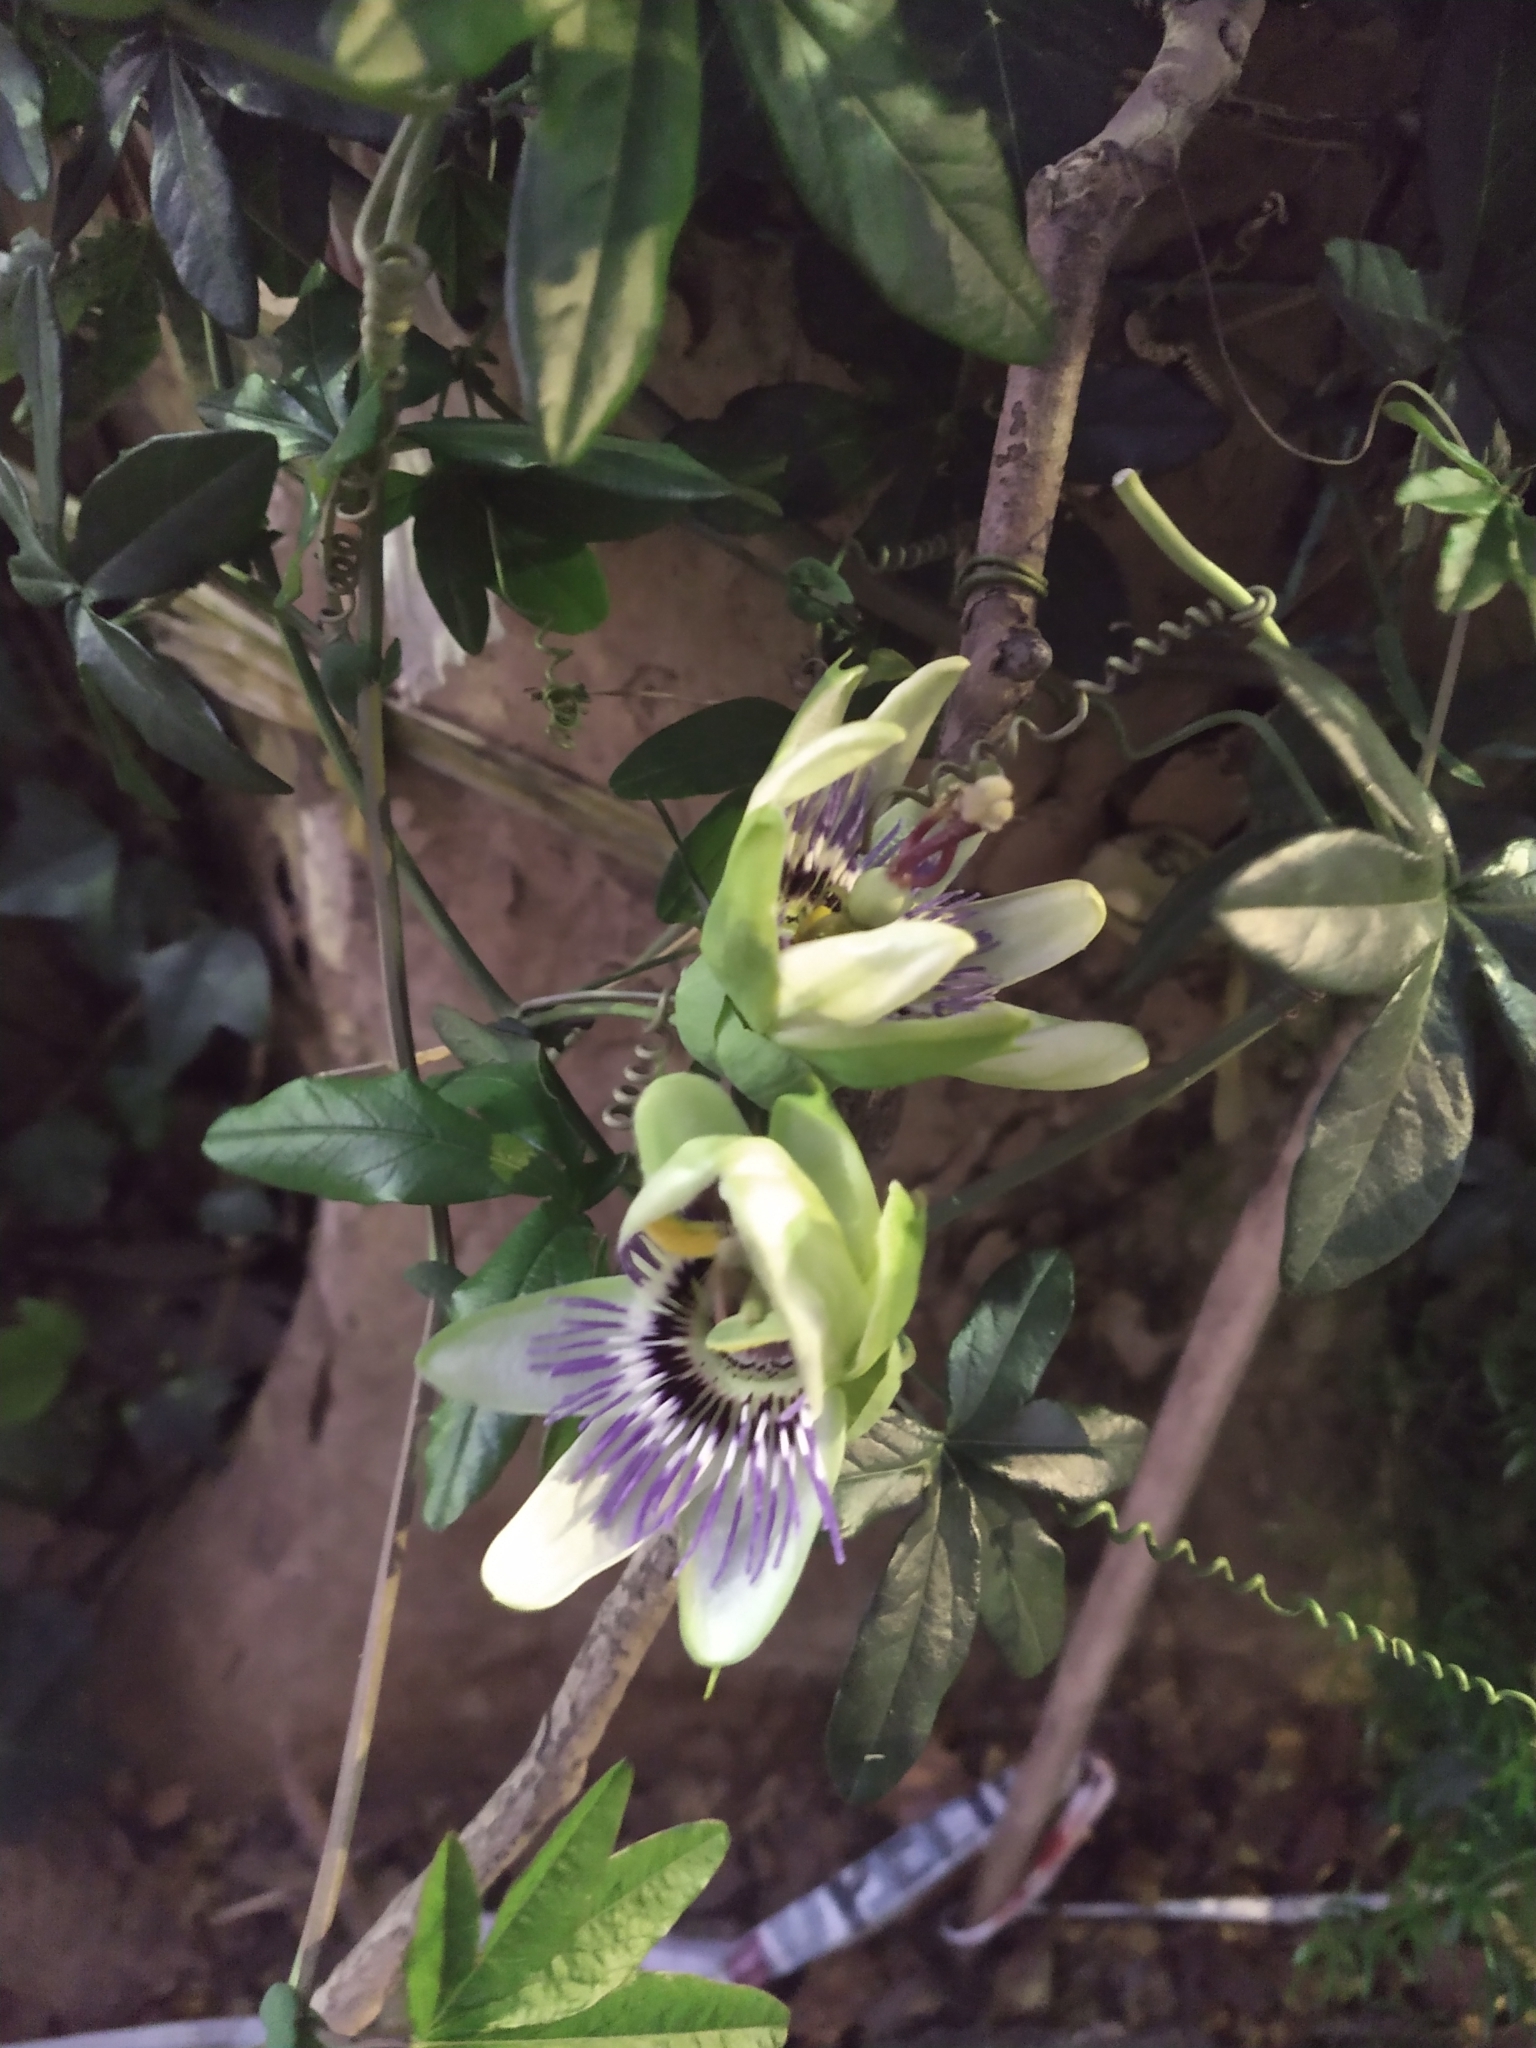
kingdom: Plantae
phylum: Tracheophyta
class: Magnoliopsida
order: Malpighiales
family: Passifloraceae
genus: Passiflora
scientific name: Passiflora caerulea
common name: Blue passionflower
